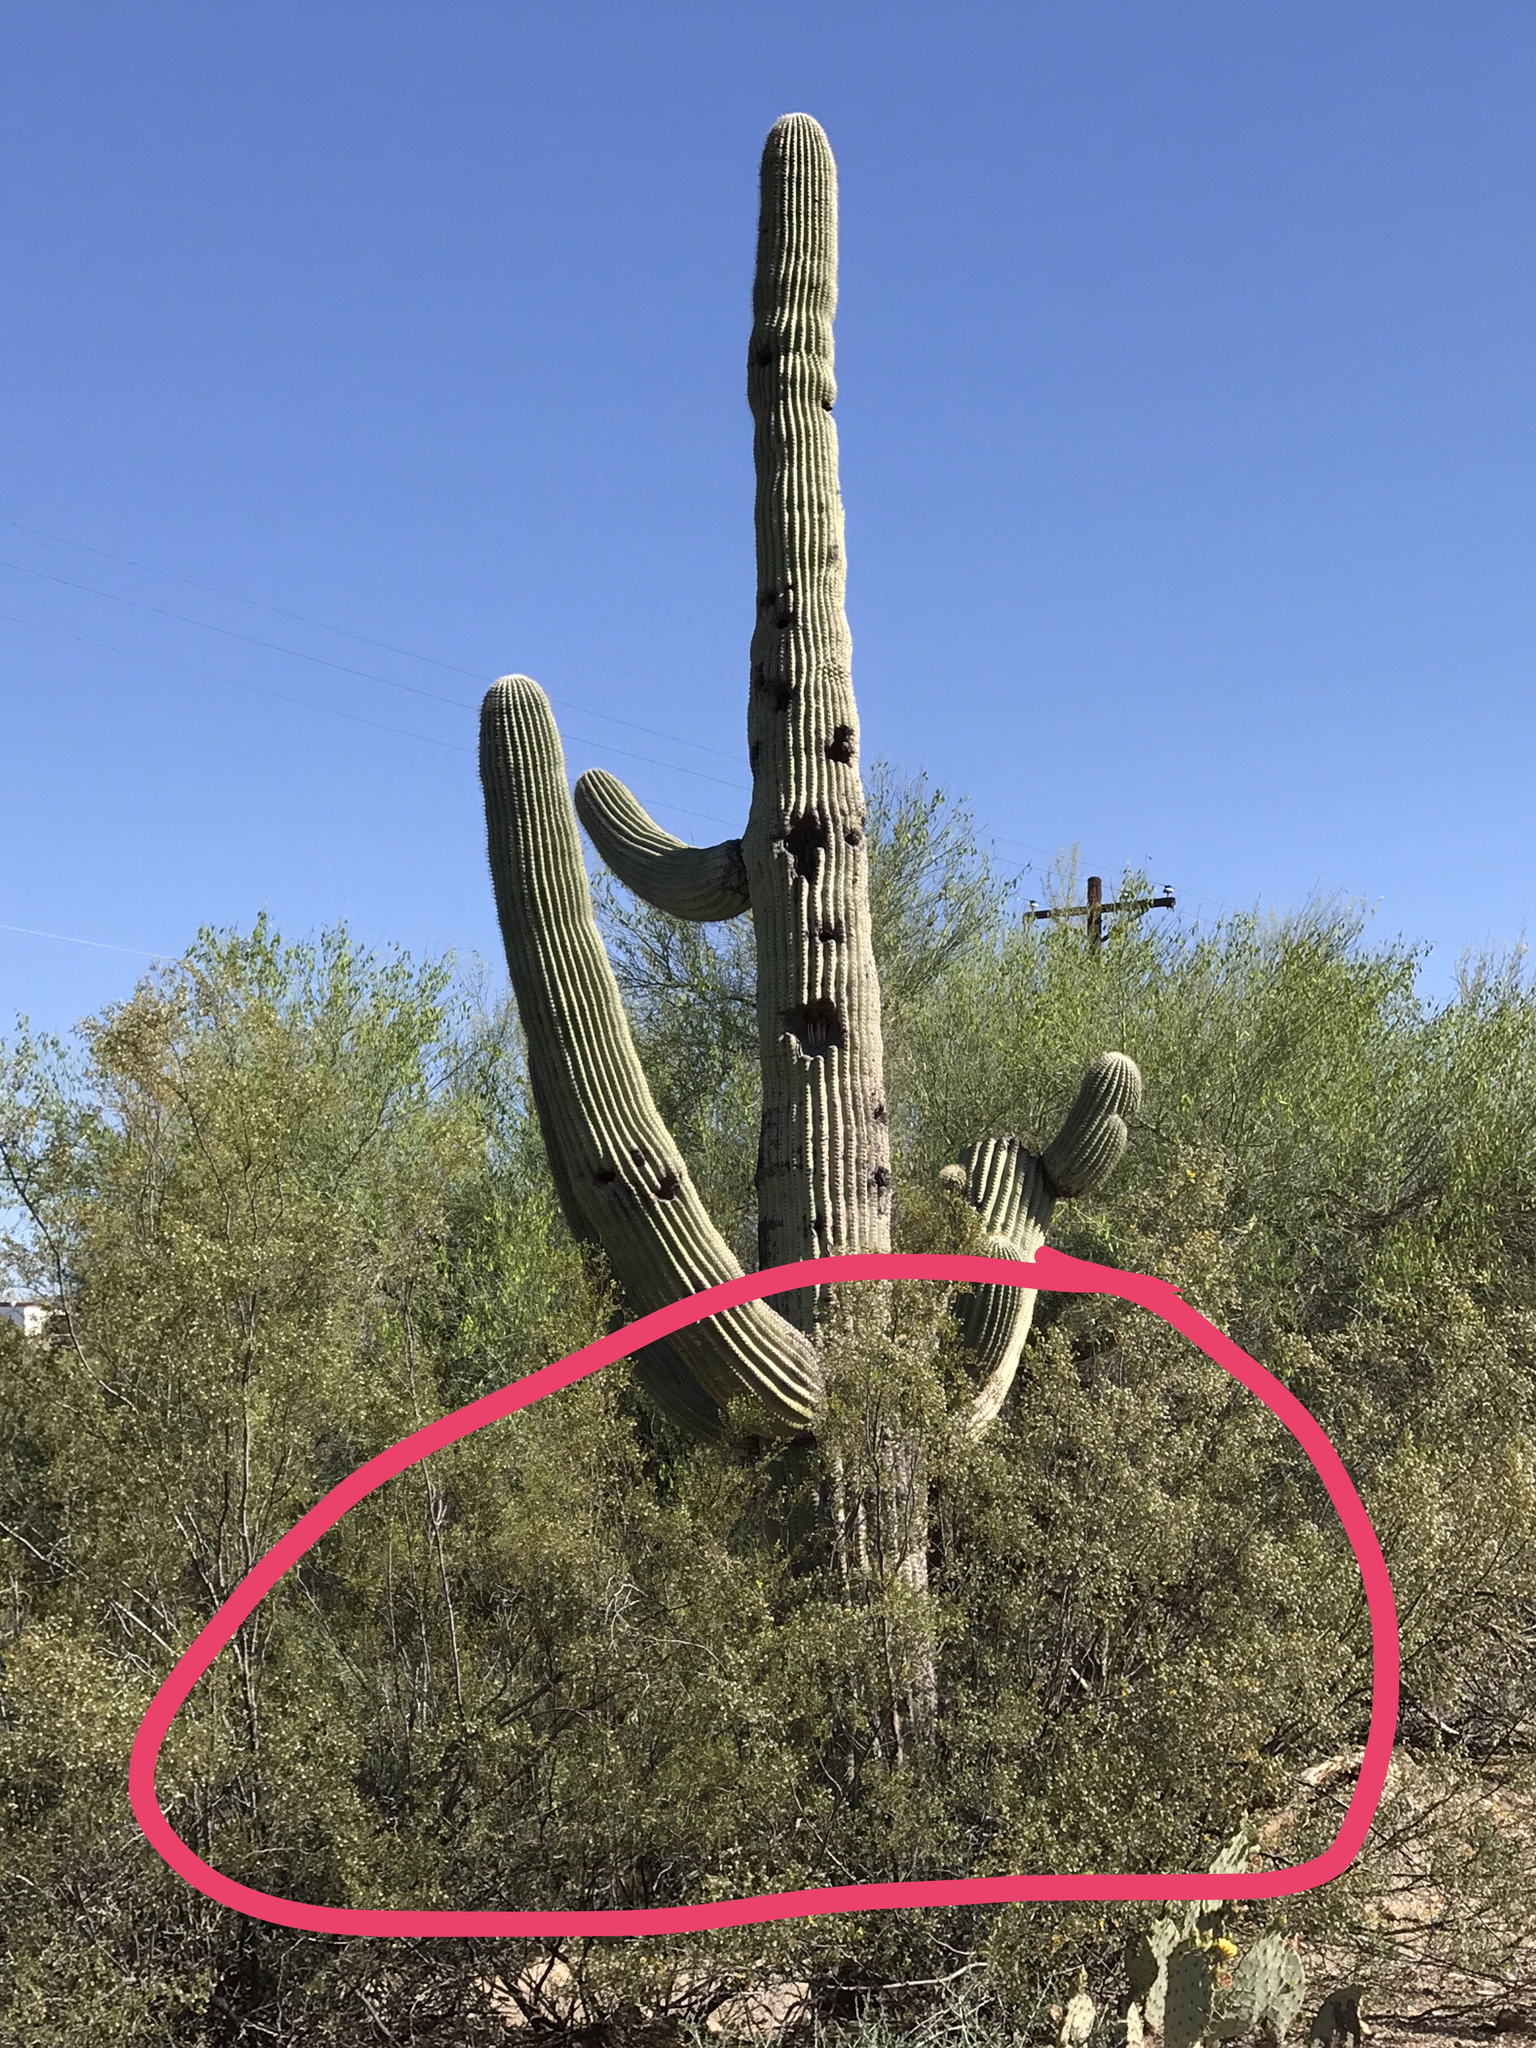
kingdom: Plantae
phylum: Tracheophyta
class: Magnoliopsida
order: Zygophyllales
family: Zygophyllaceae
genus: Larrea
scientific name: Larrea tridentata
